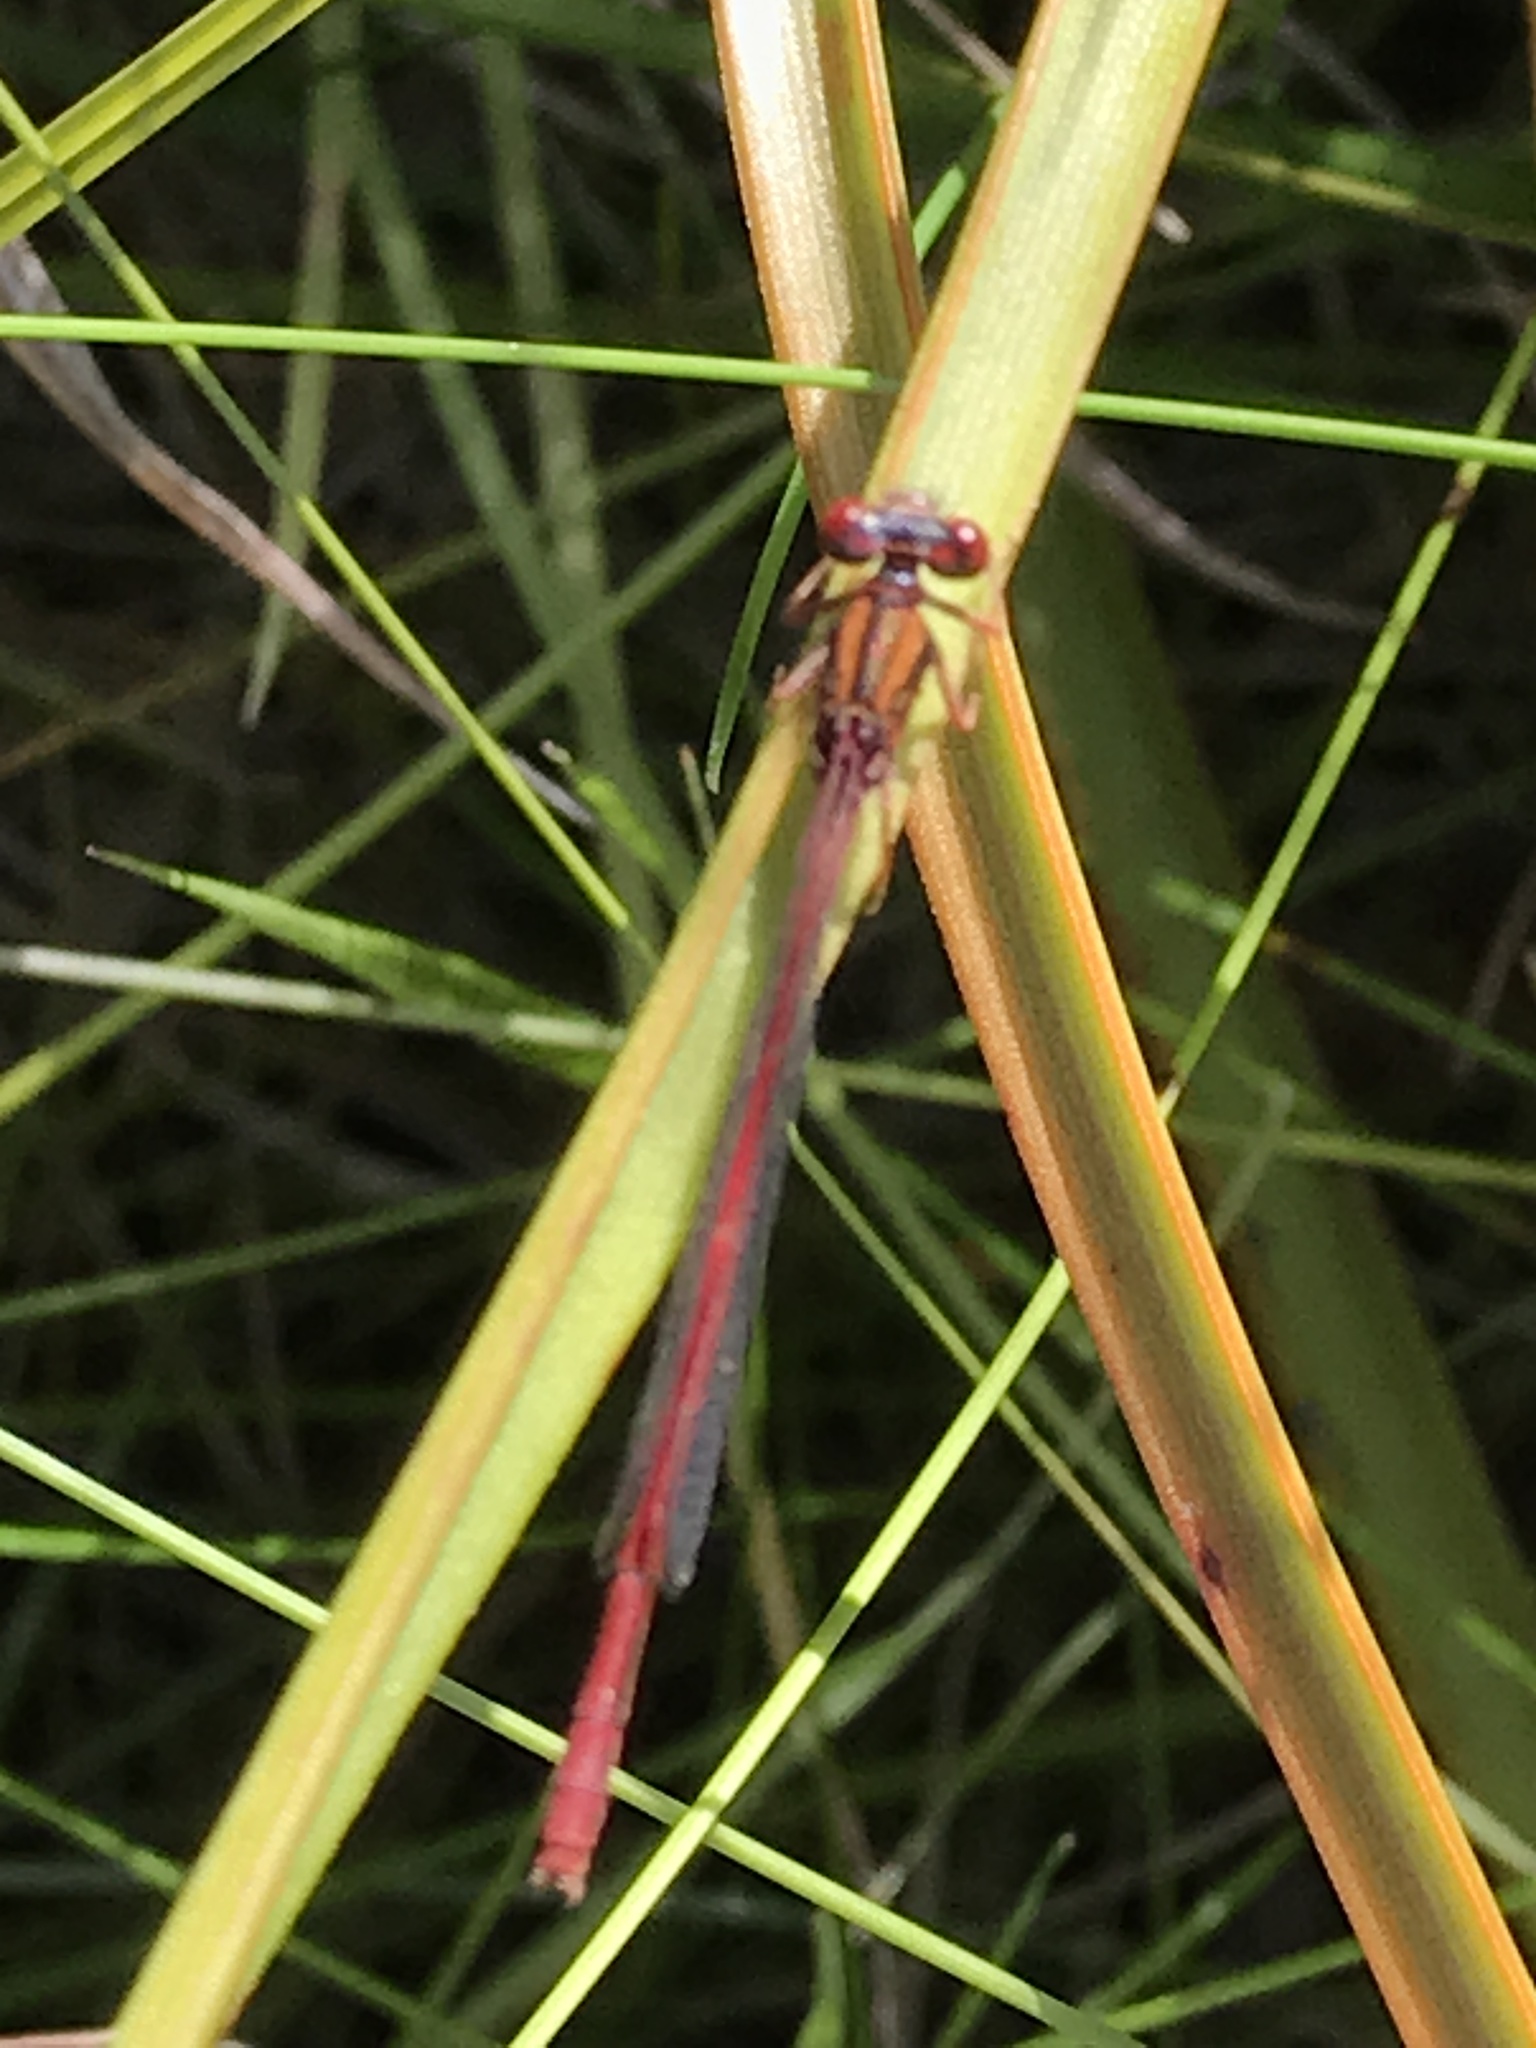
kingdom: Animalia
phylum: Arthropoda
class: Insecta
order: Odonata
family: Coenagrionidae
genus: Xanthocnemis
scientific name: Xanthocnemis zealandica
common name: Common redcoat damselfly
